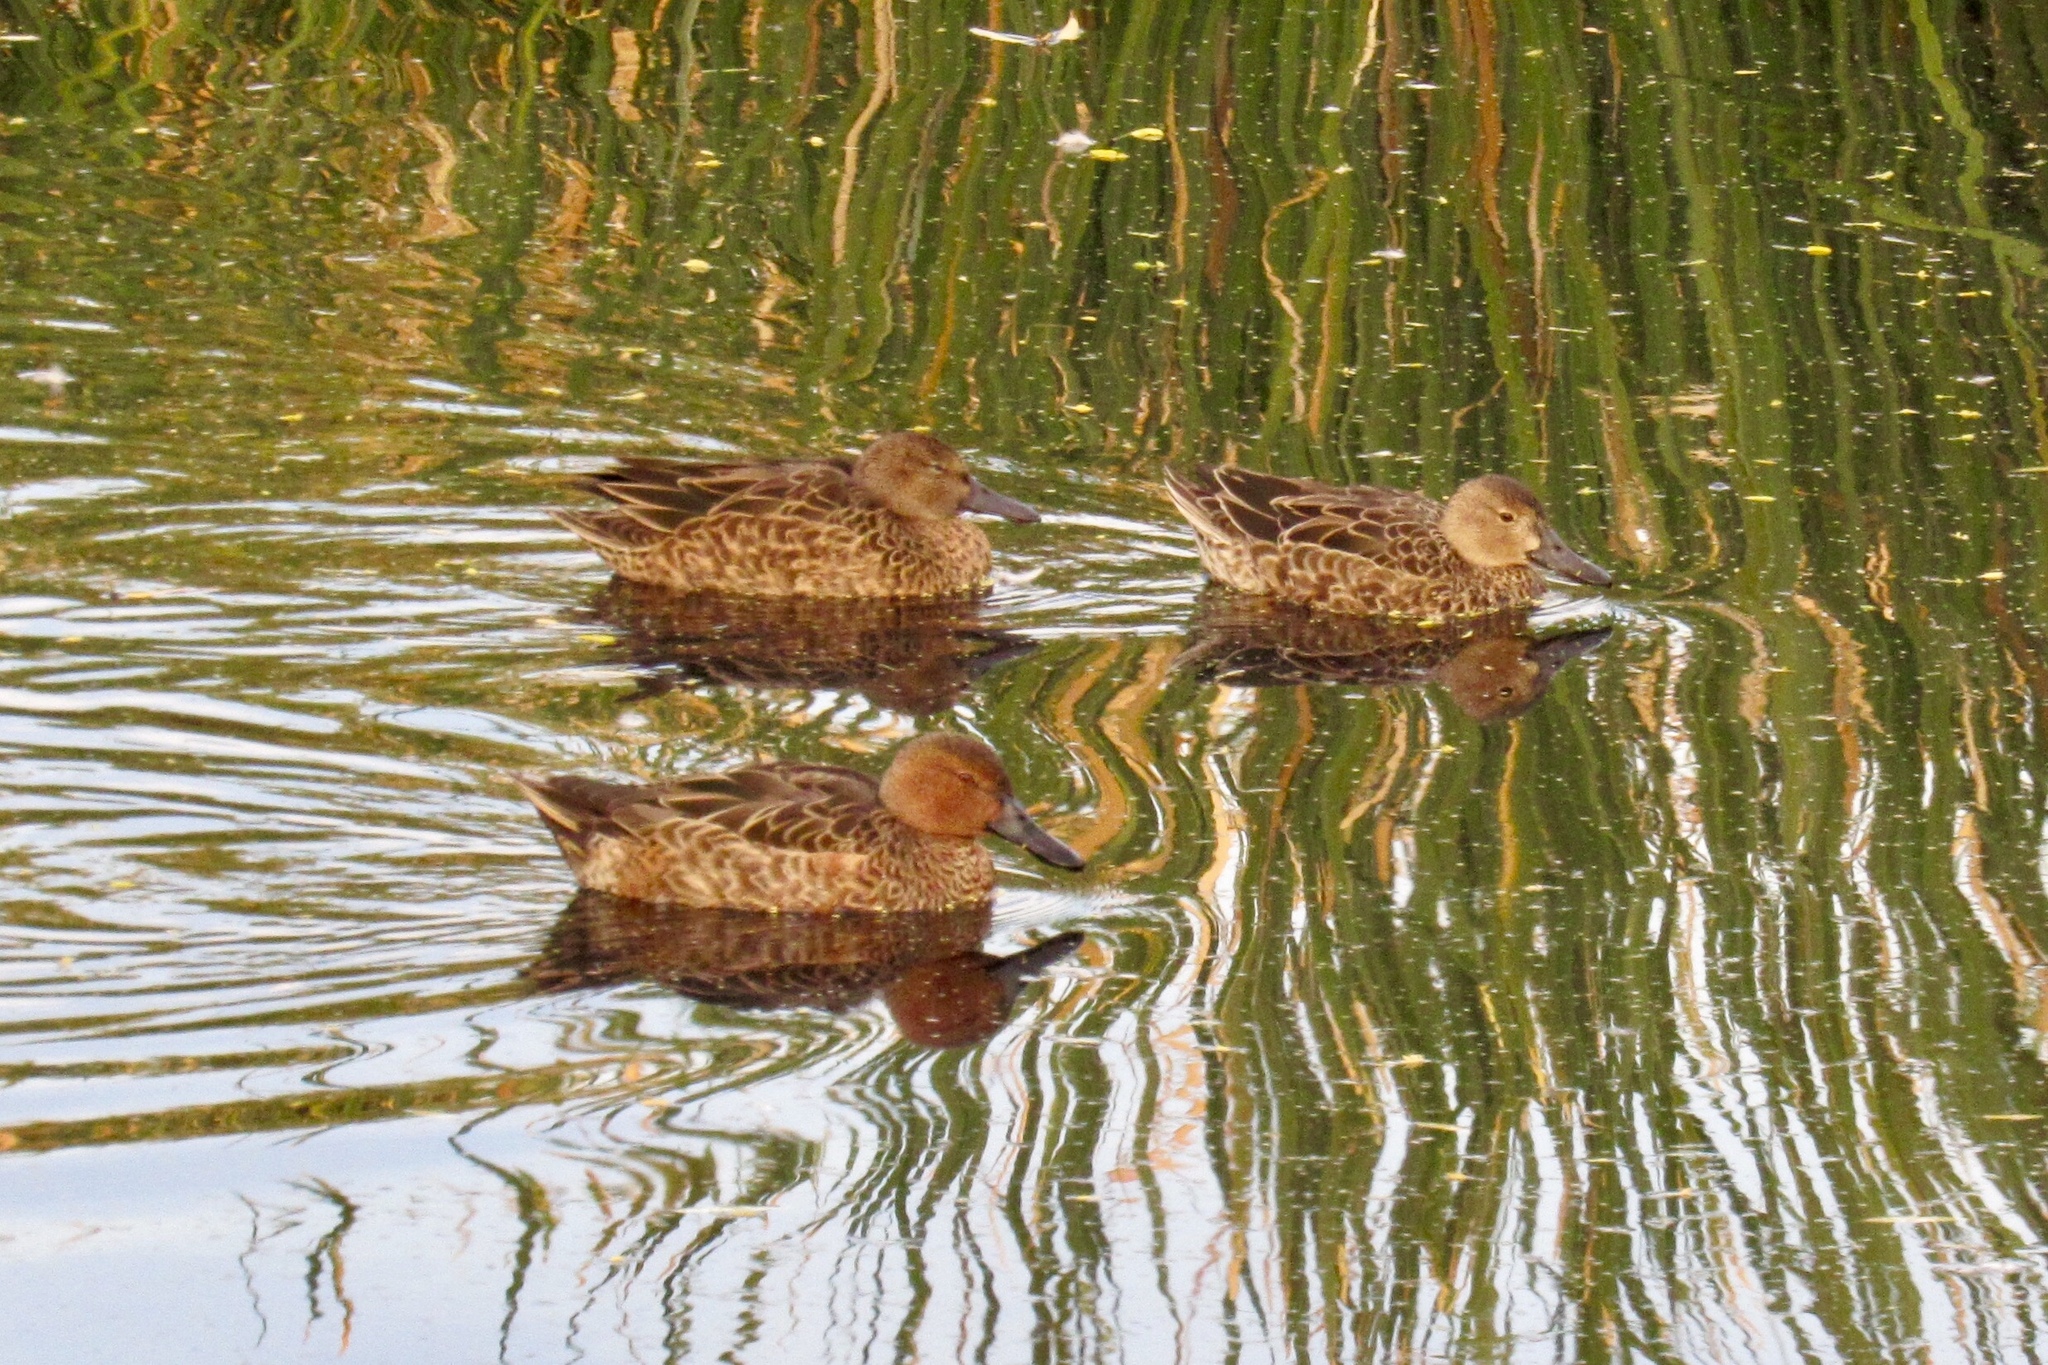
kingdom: Animalia
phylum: Chordata
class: Aves
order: Anseriformes
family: Anatidae
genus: Spatula
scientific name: Spatula cyanoptera
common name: Cinnamon teal
